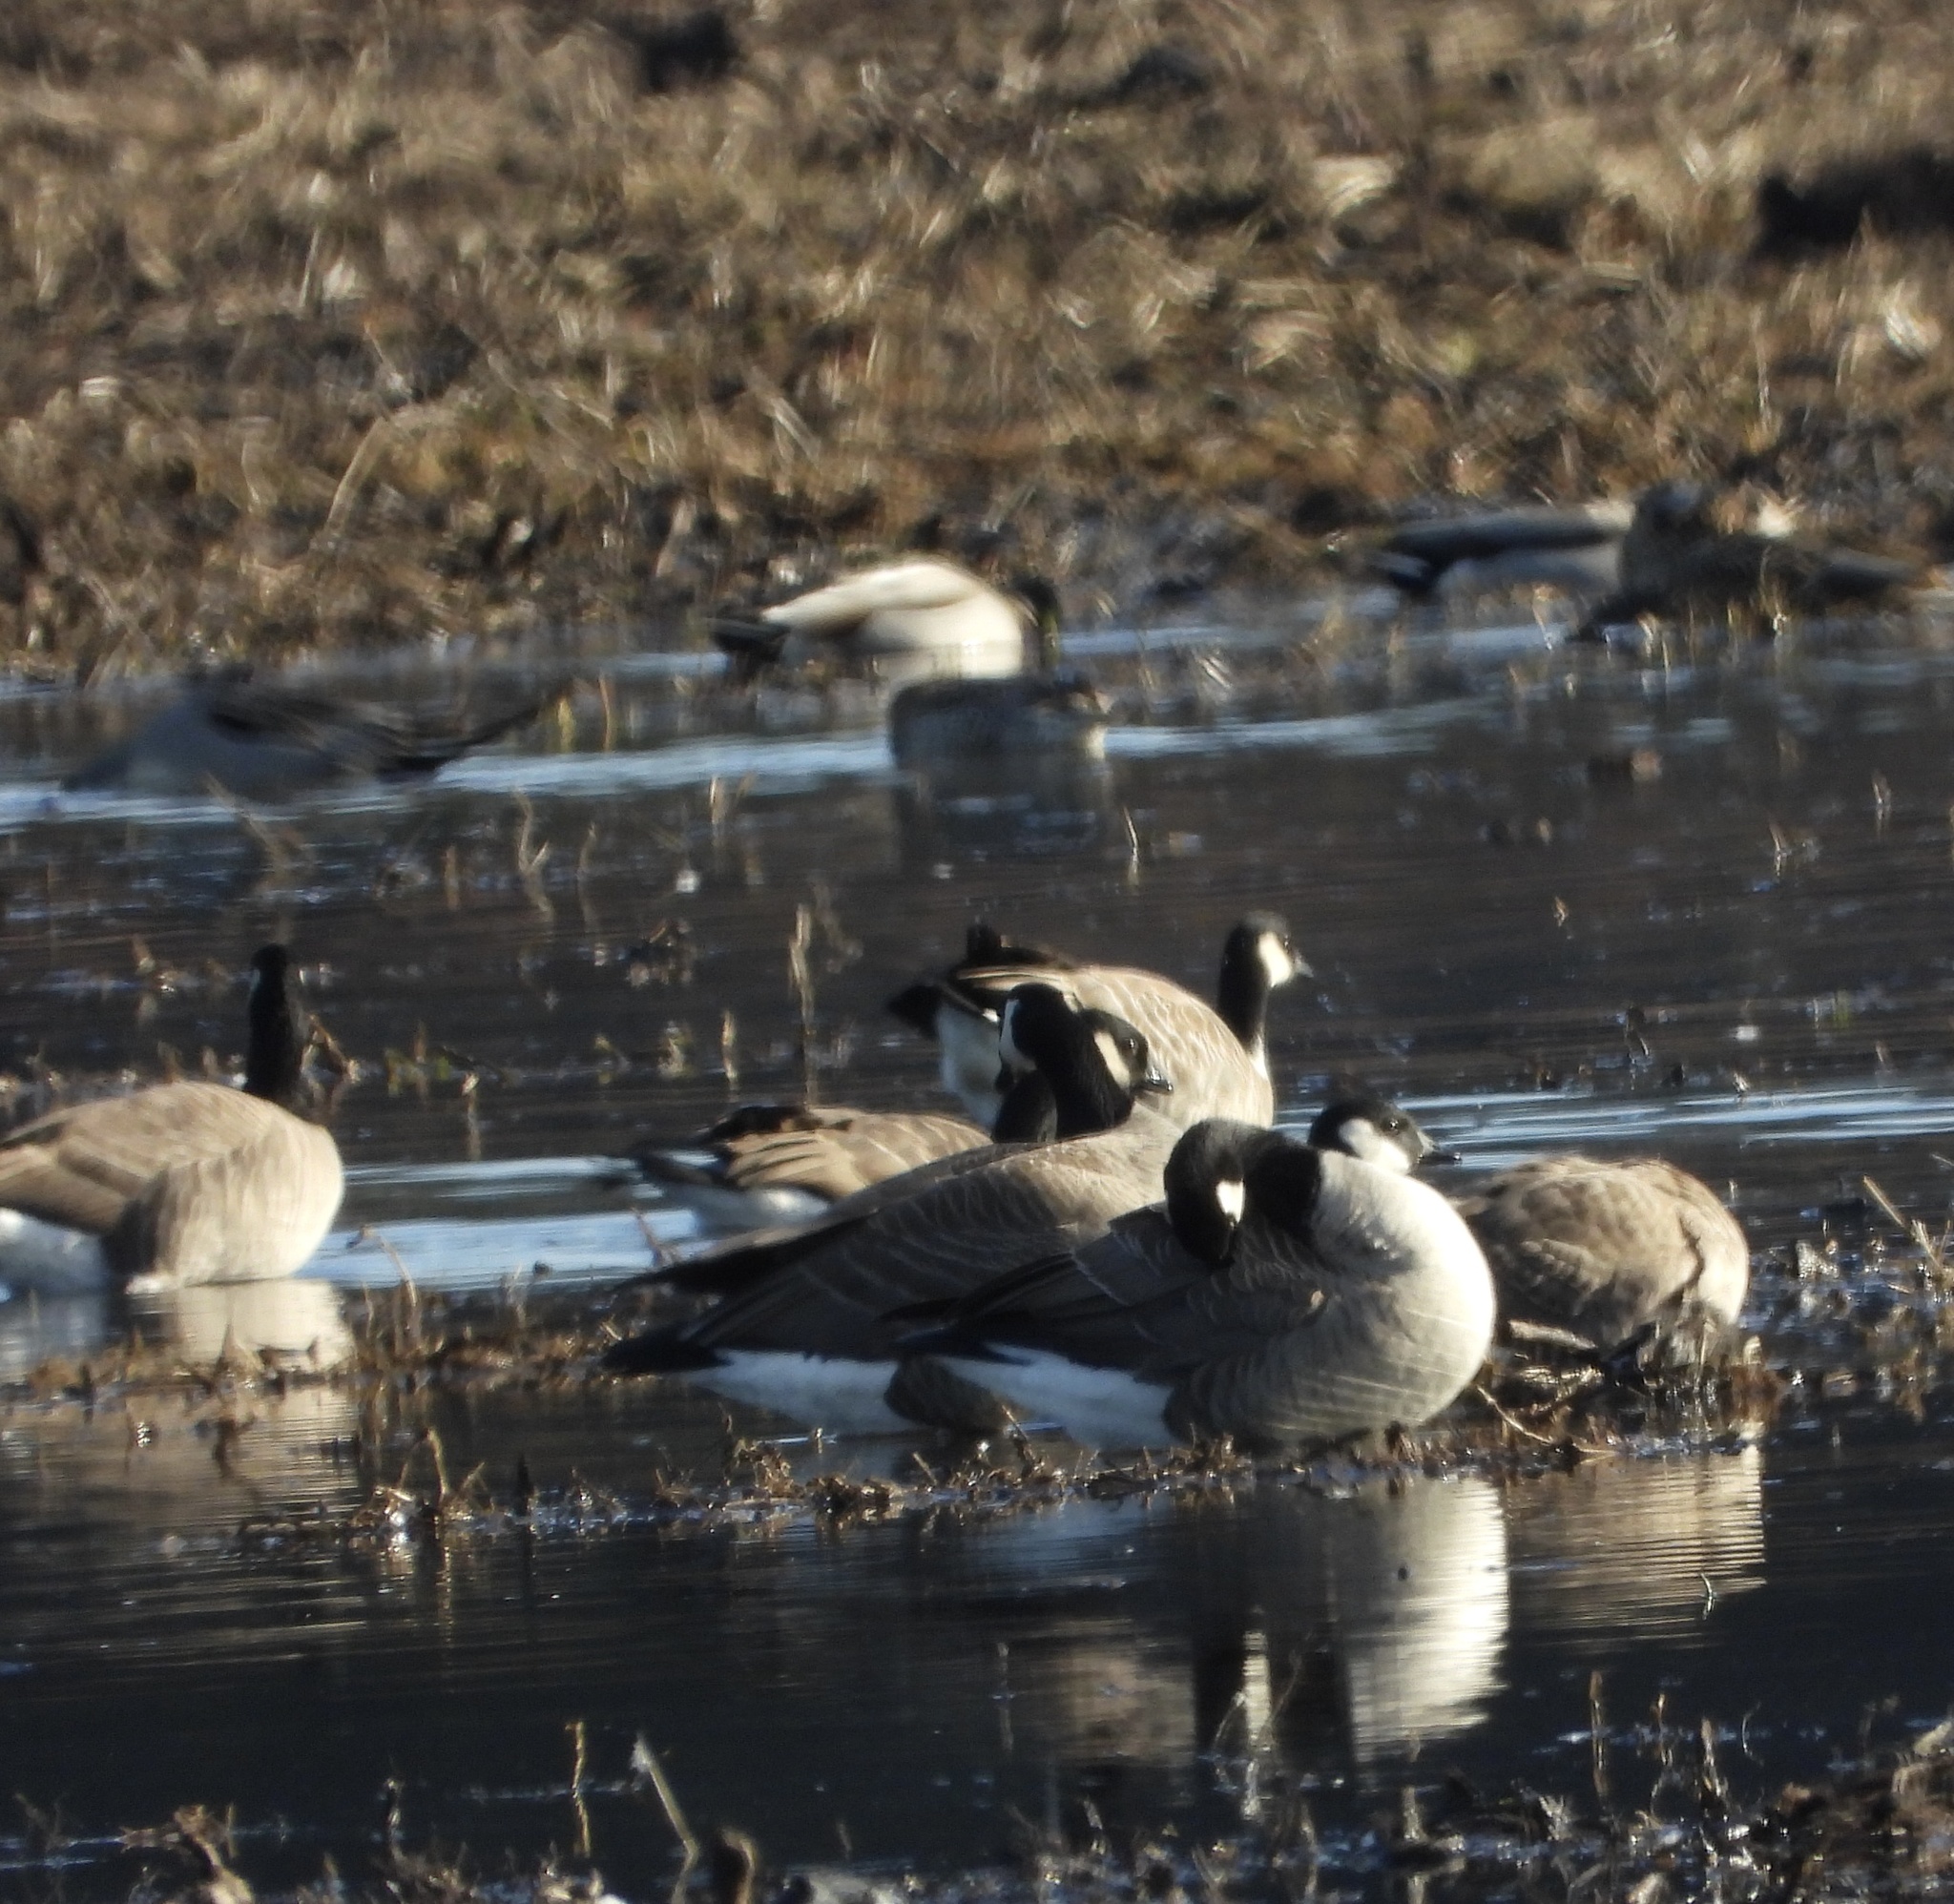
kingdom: Animalia
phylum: Chordata
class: Aves
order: Anseriformes
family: Anatidae
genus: Branta
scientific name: Branta hutchinsii
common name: Cackling goose
